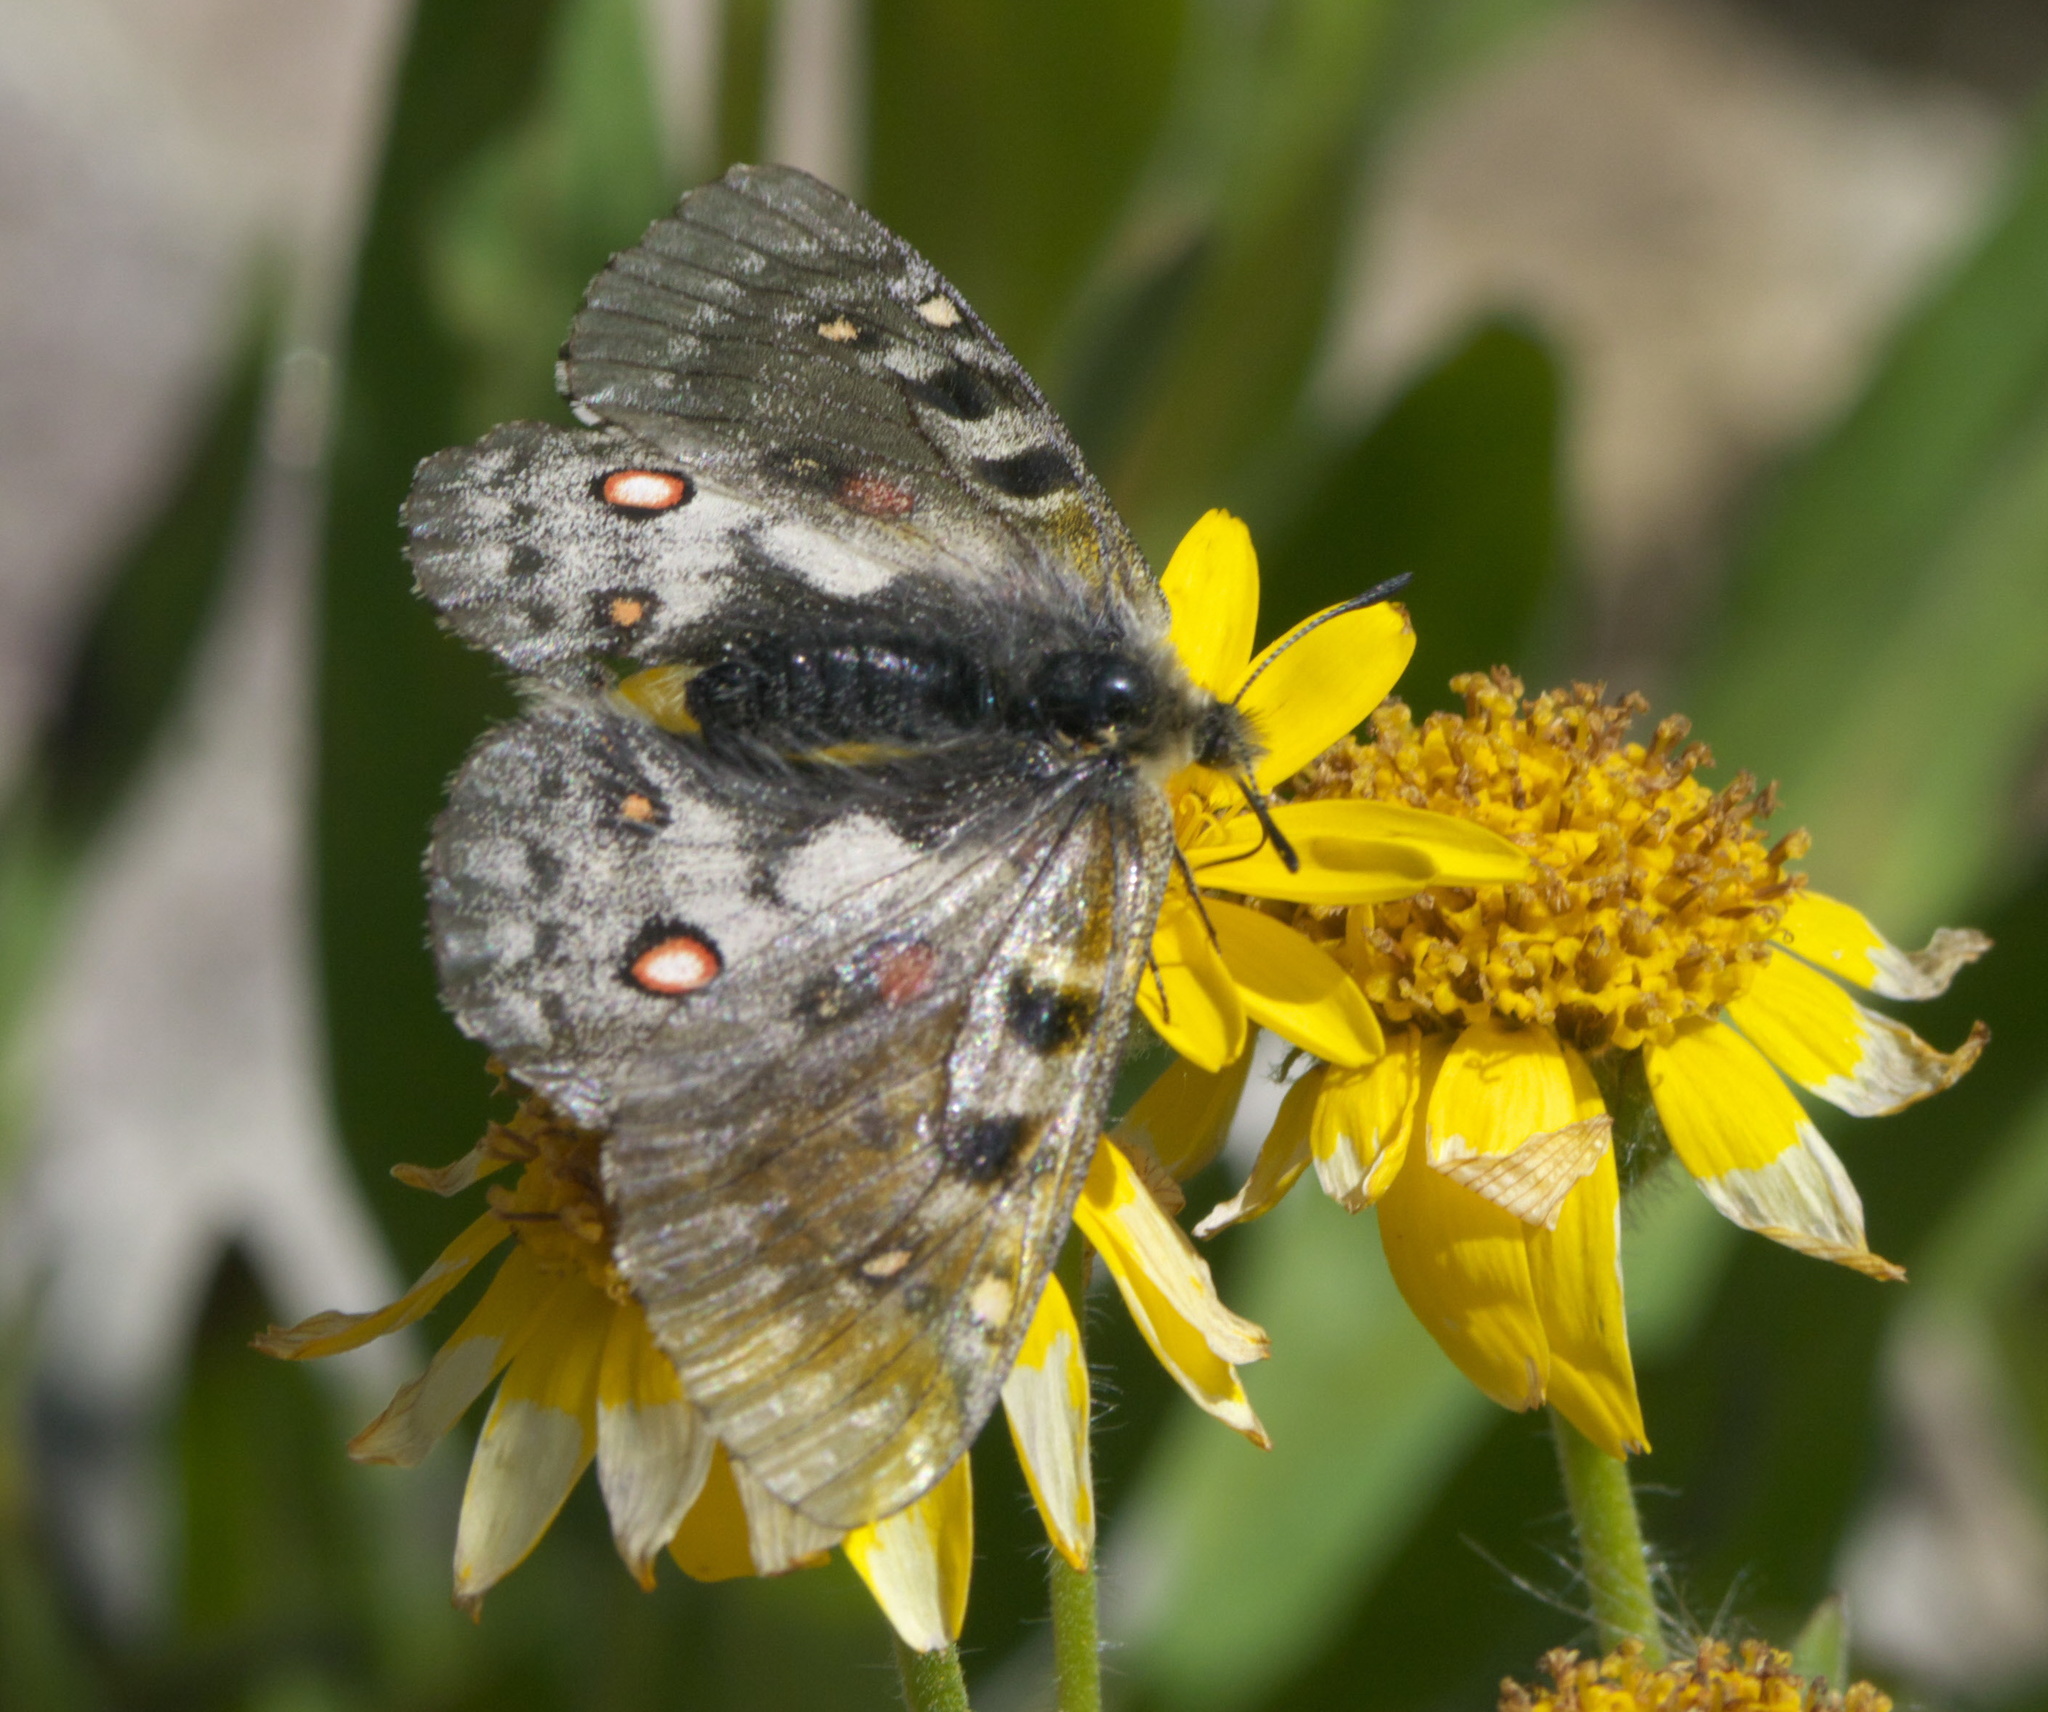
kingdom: Animalia
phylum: Arthropoda
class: Insecta
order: Lepidoptera
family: Papilionidae
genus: Parnassius
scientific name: Parnassius smintheus
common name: Mountain parnassian
